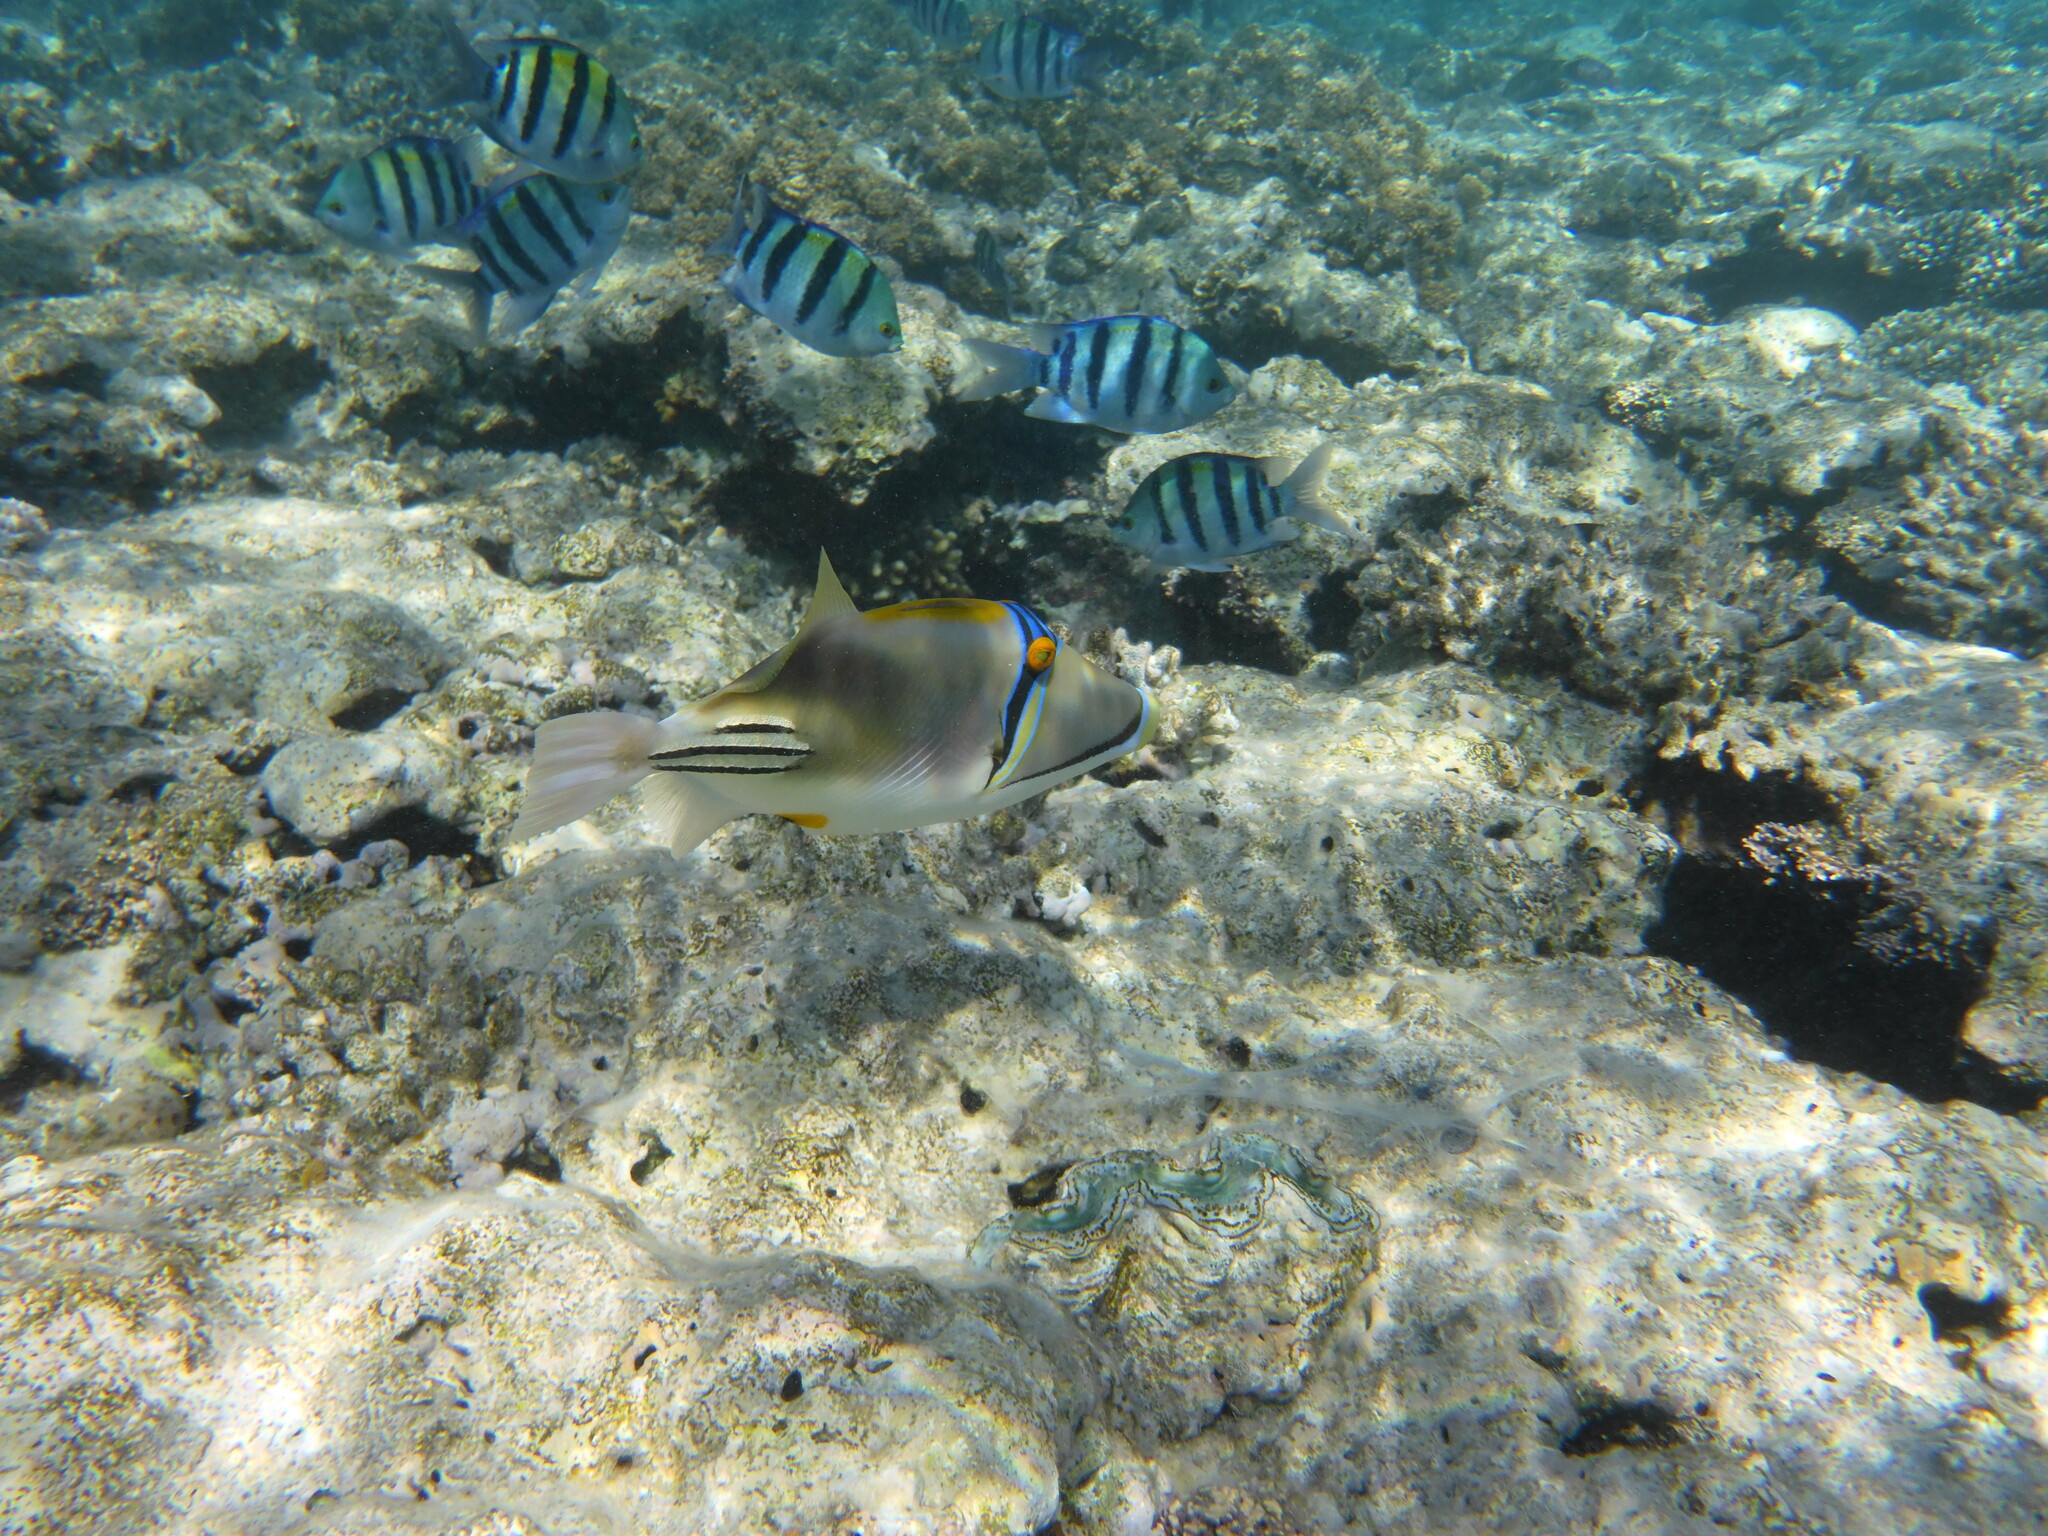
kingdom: Animalia
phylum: Chordata
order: Tetraodontiformes
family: Balistidae
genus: Rhinecanthus
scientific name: Rhinecanthus assasi
